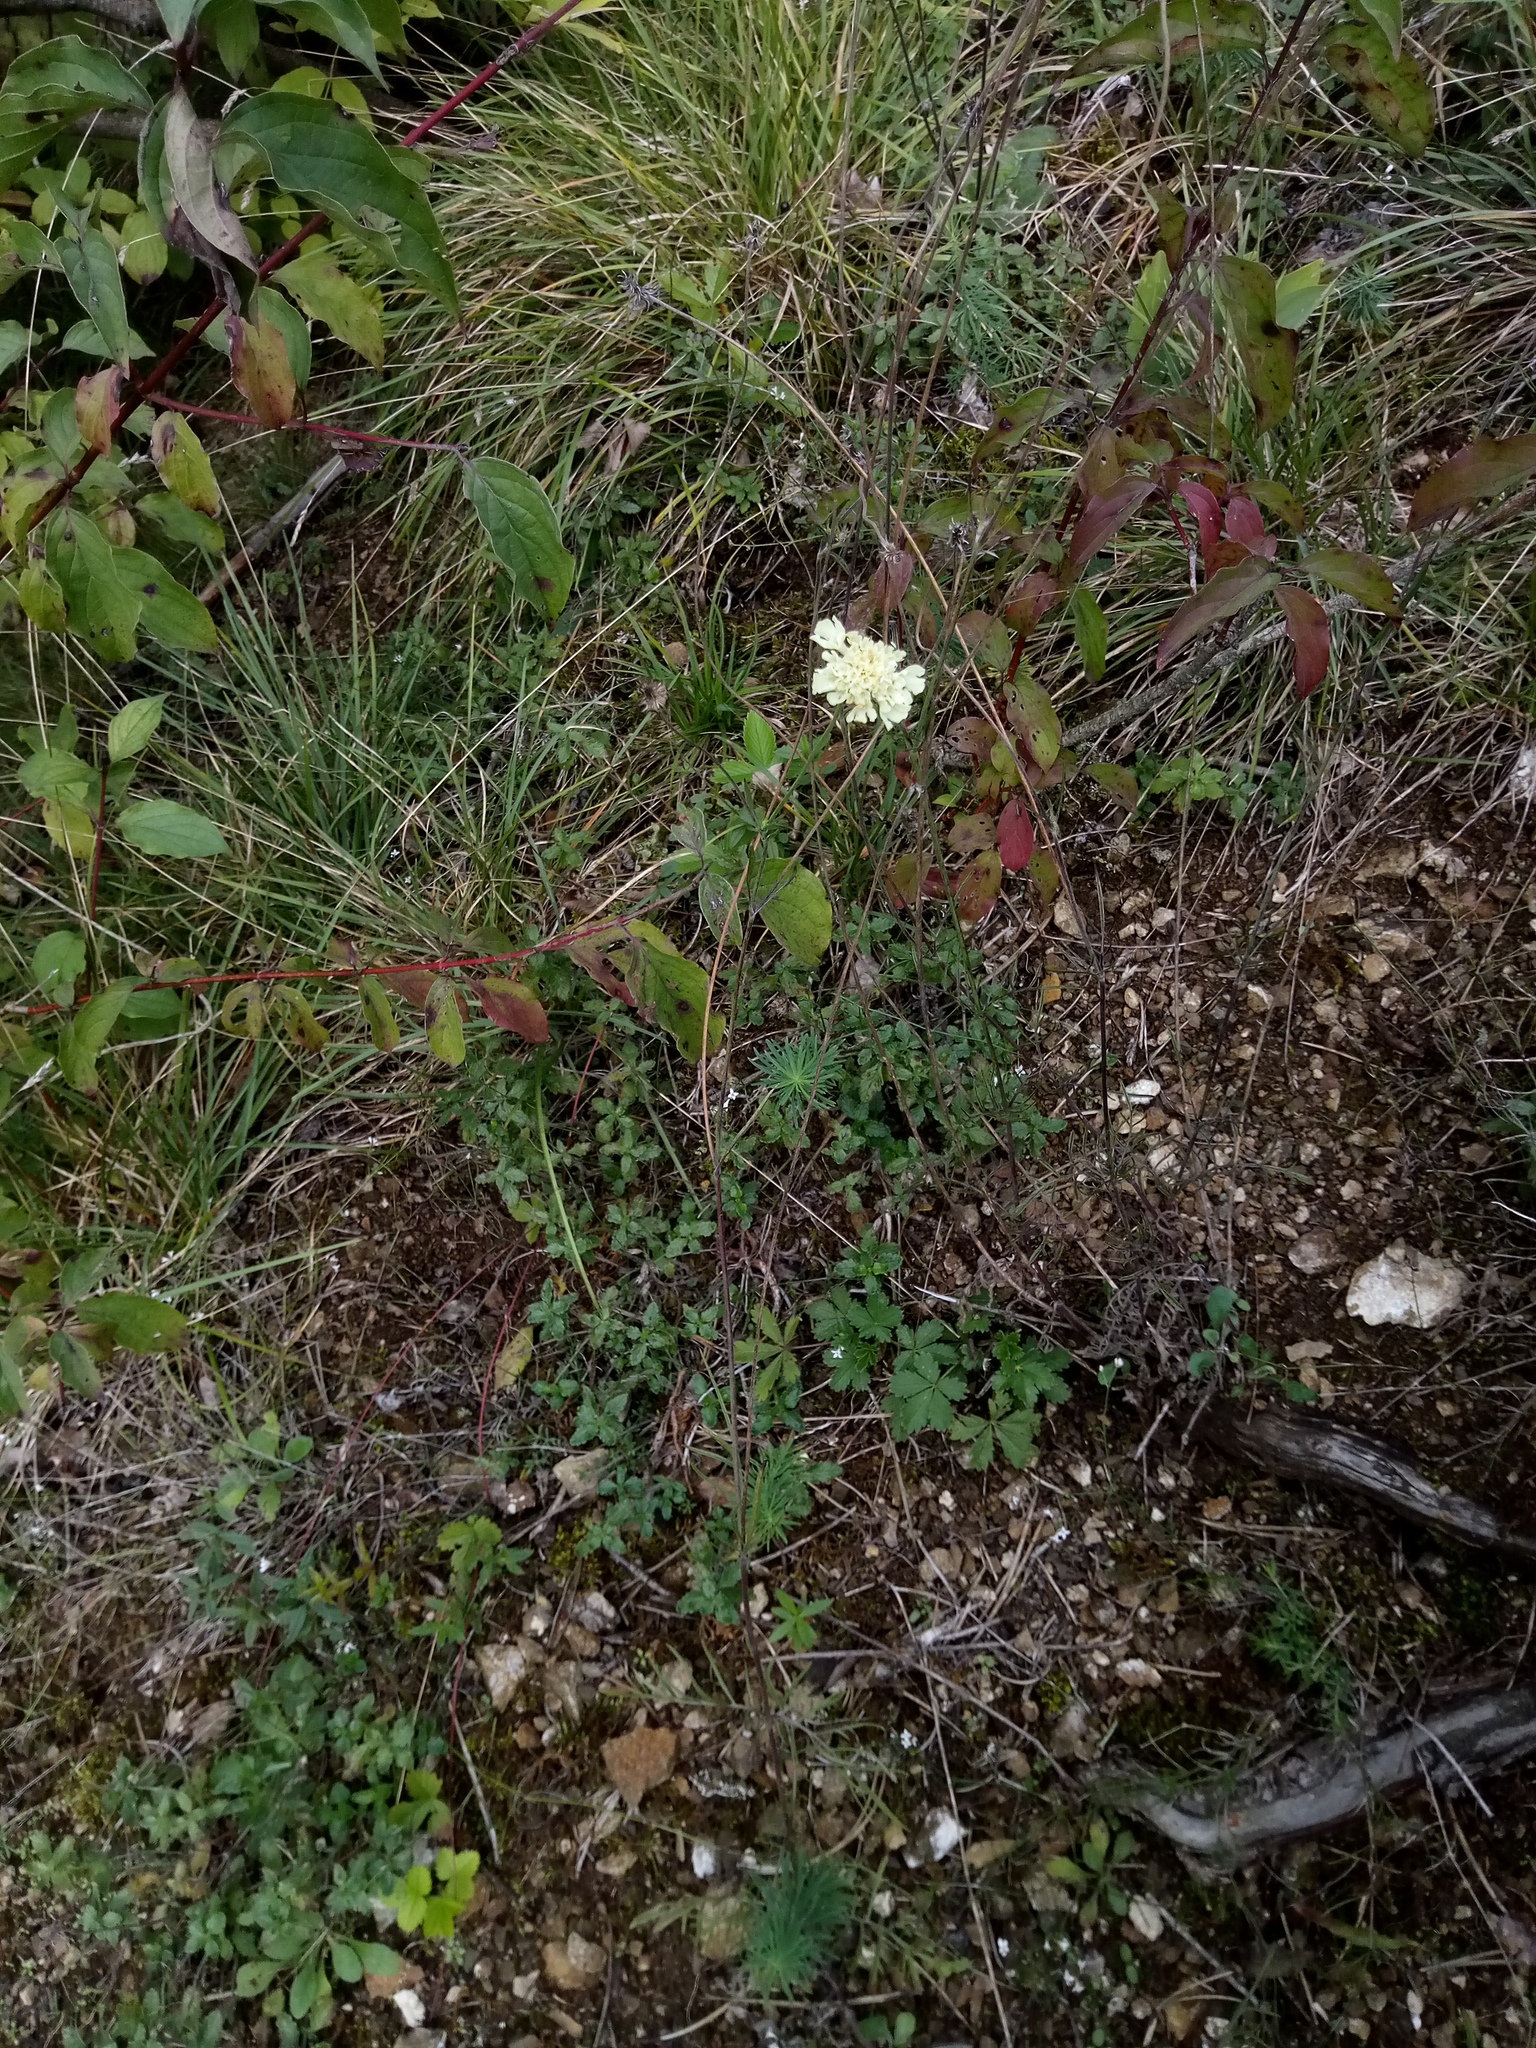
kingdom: Plantae
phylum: Tracheophyta
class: Magnoliopsida
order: Dipsacales
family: Caprifoliaceae
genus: Scabiosa
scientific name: Scabiosa ochroleuca
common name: Cream pincushions
